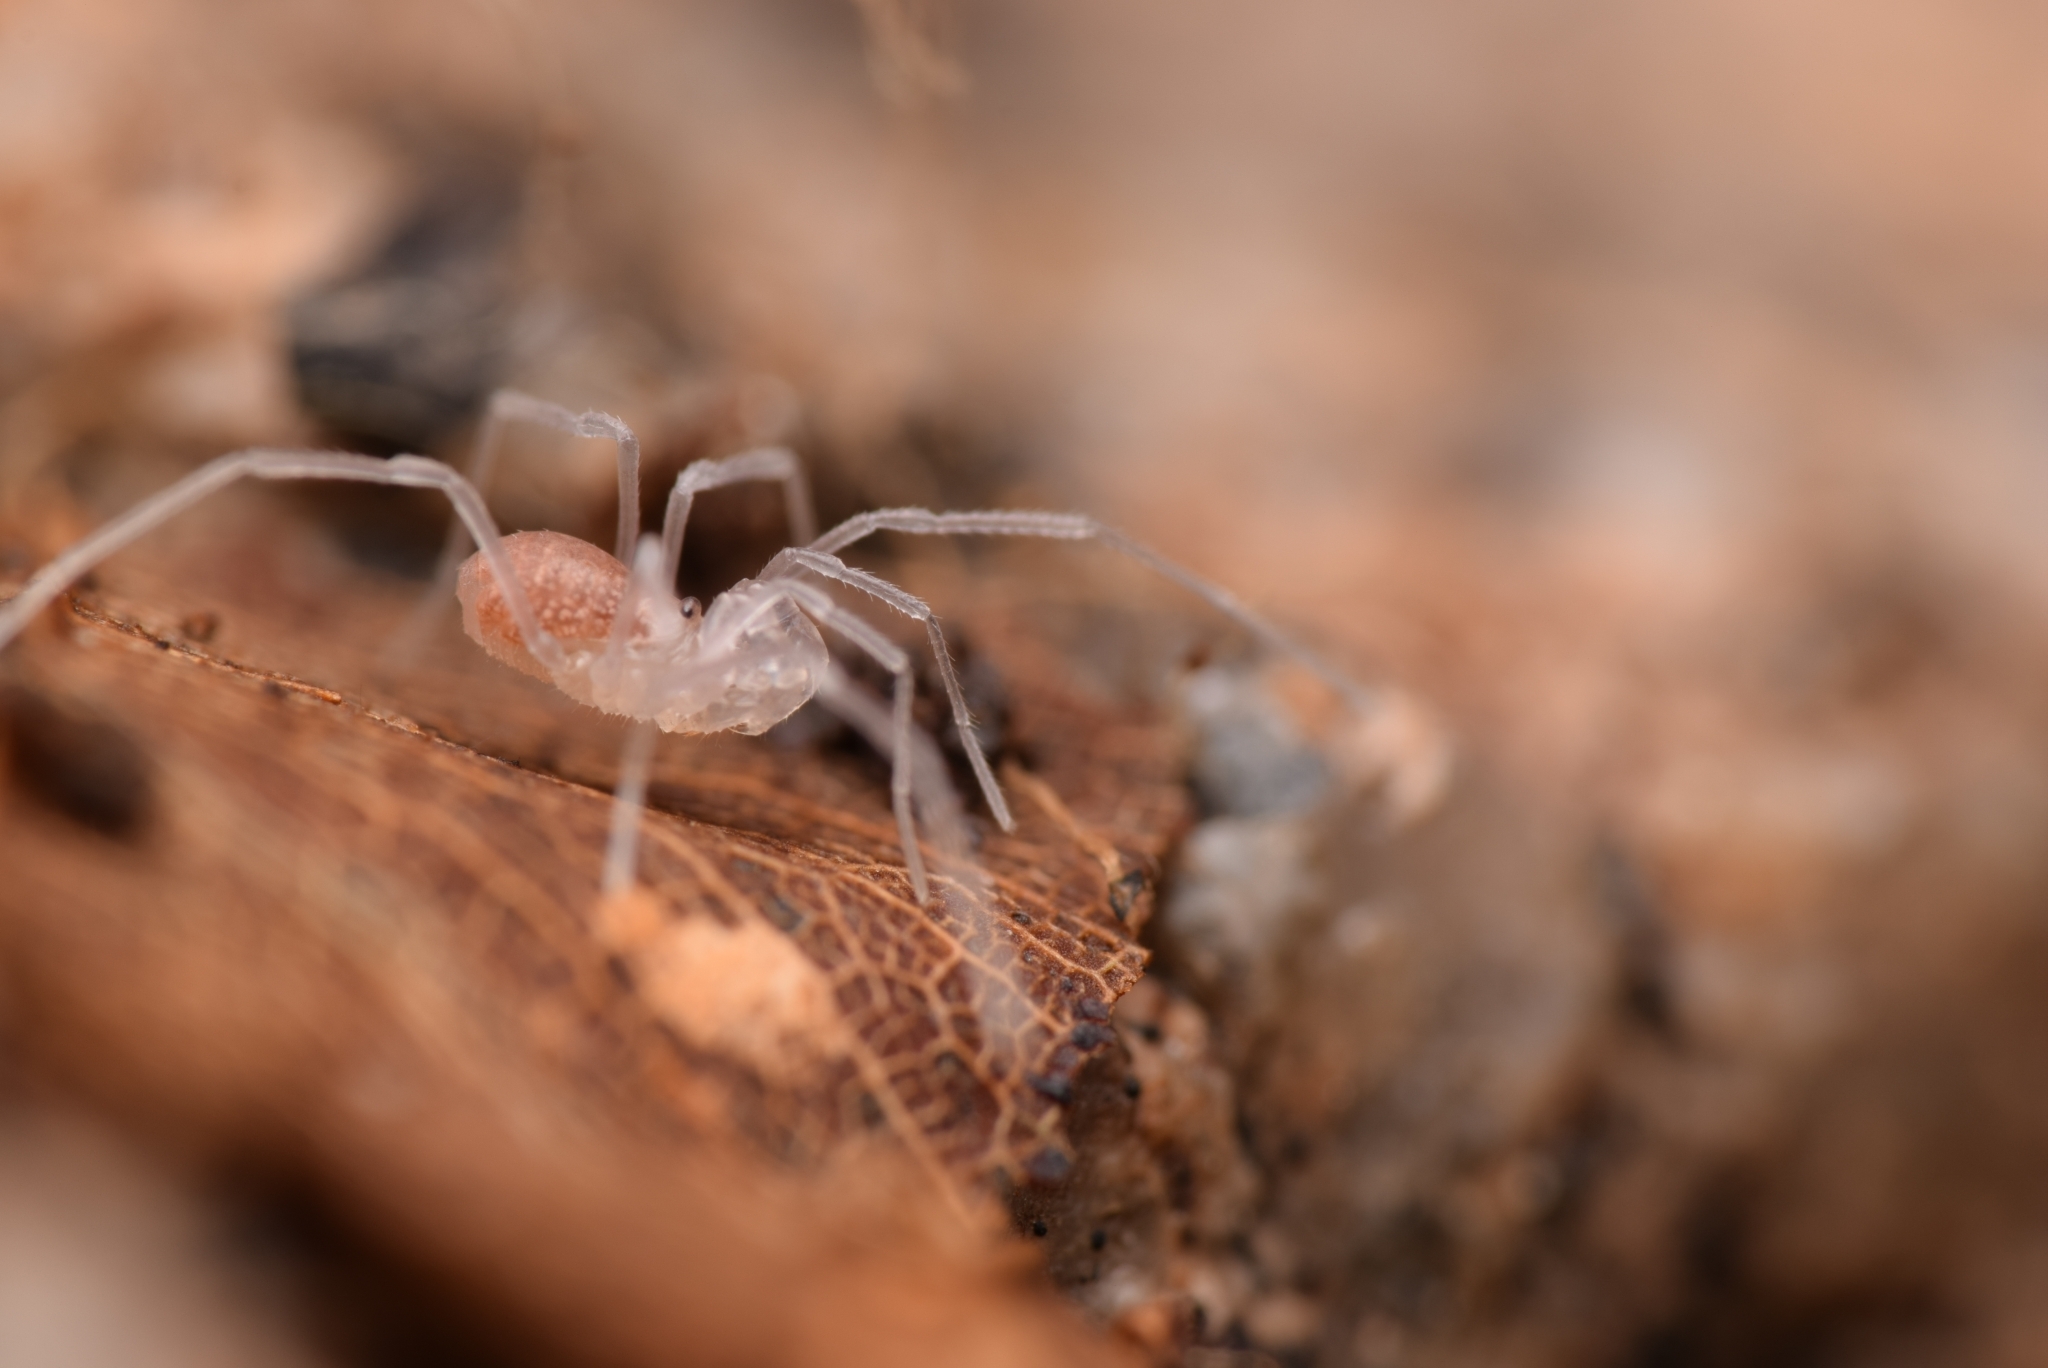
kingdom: Animalia
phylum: Arthropoda
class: Arachnida
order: Opiliones
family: Cladonychiidae
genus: Holoscotolemon
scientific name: Holoscotolemon querilhaci
